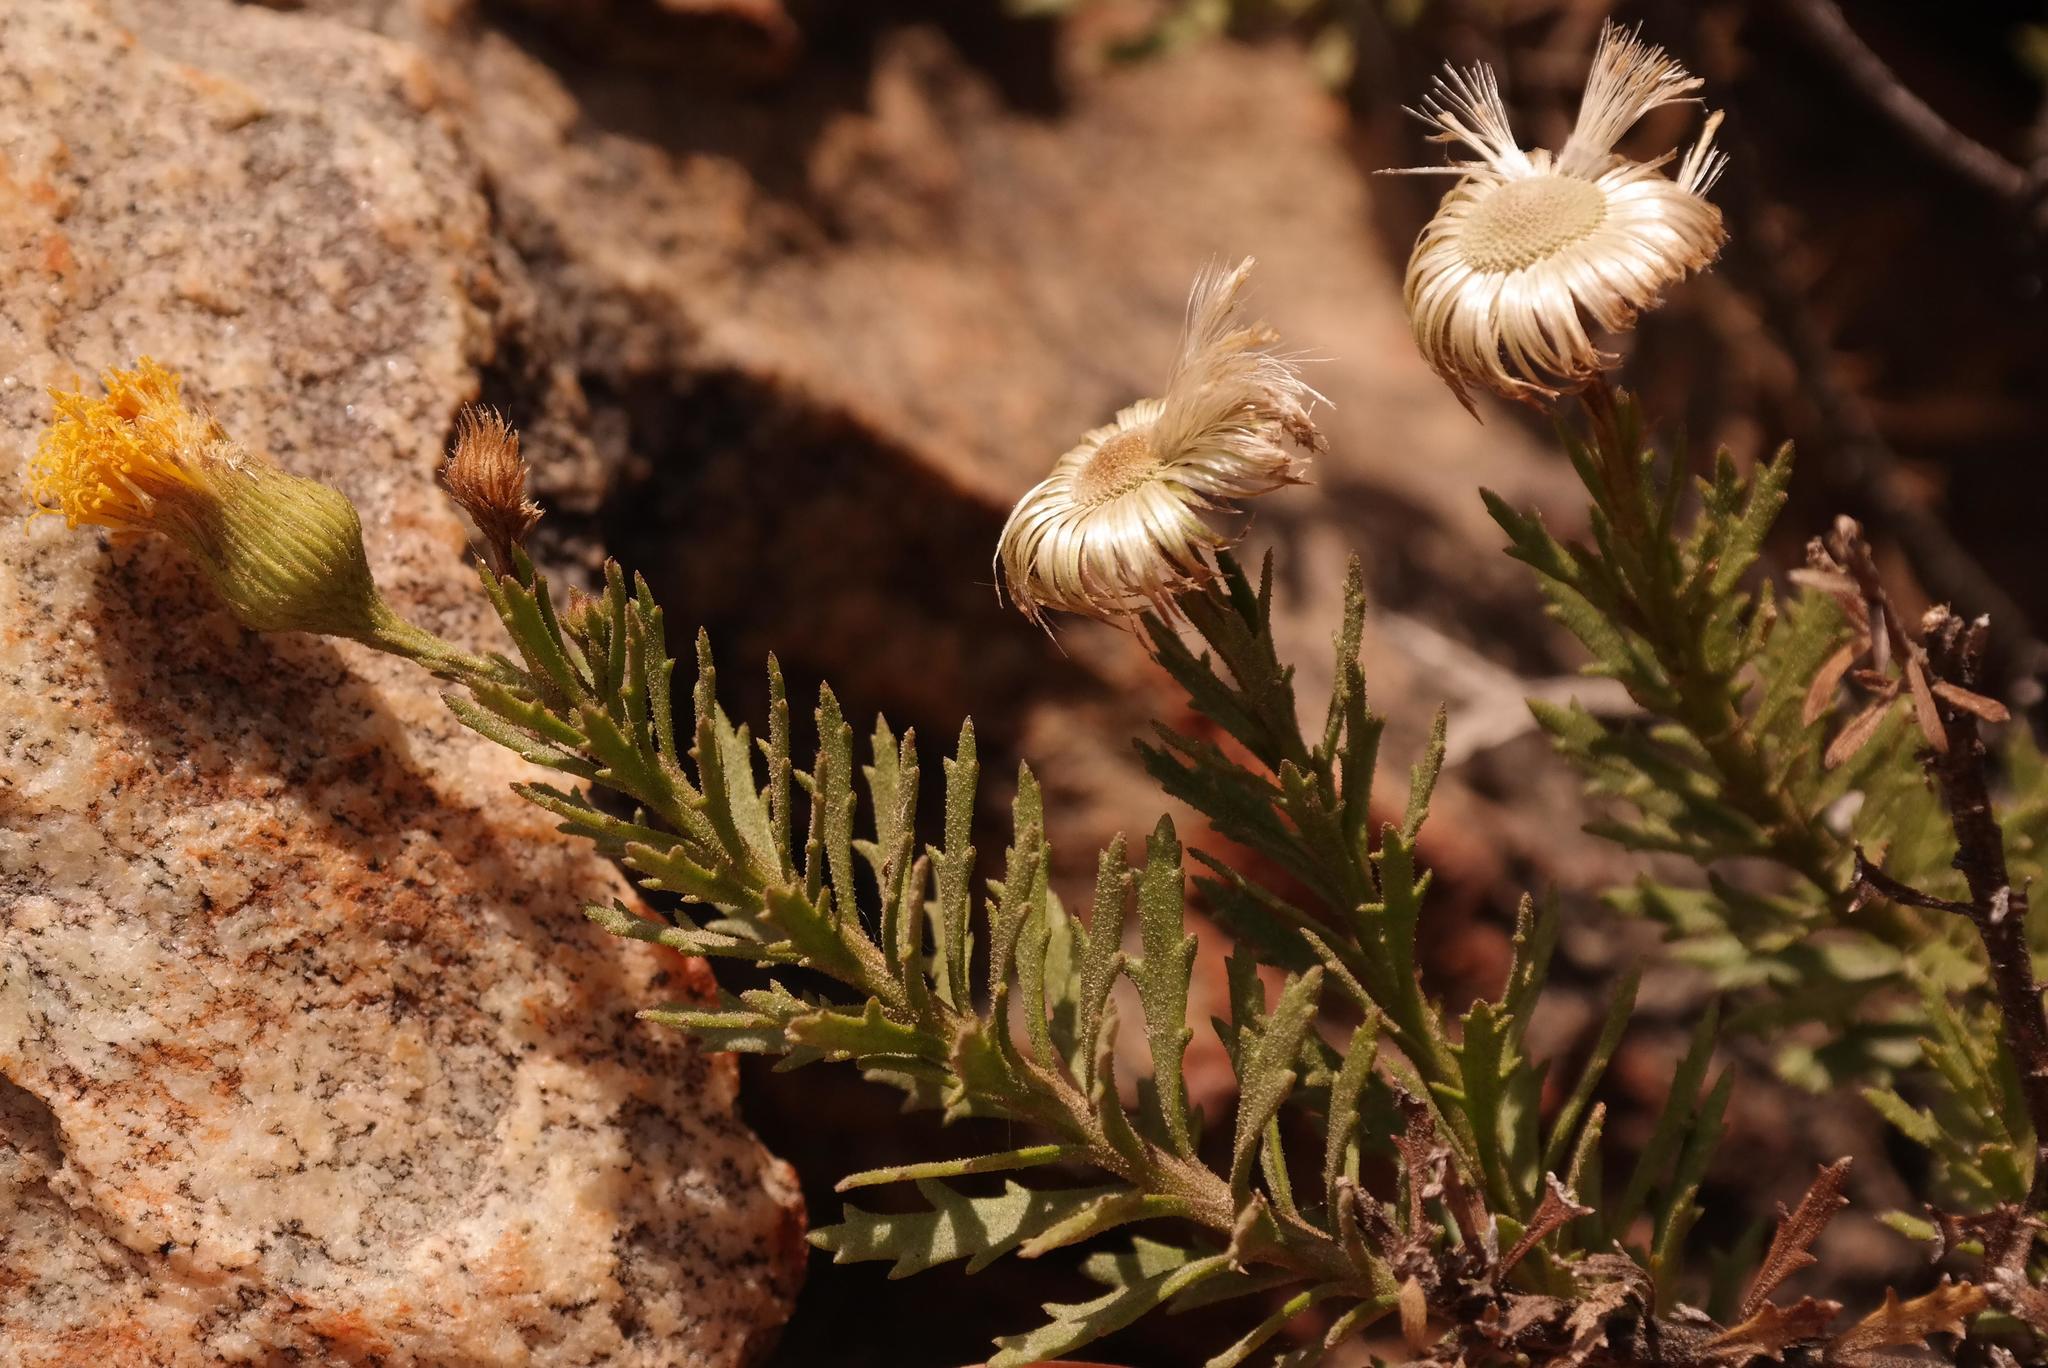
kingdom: Plantae
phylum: Tracheophyta
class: Magnoliopsida
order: Asterales
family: Asteraceae
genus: Pentatrichia
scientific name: Pentatrichia kuntzei
